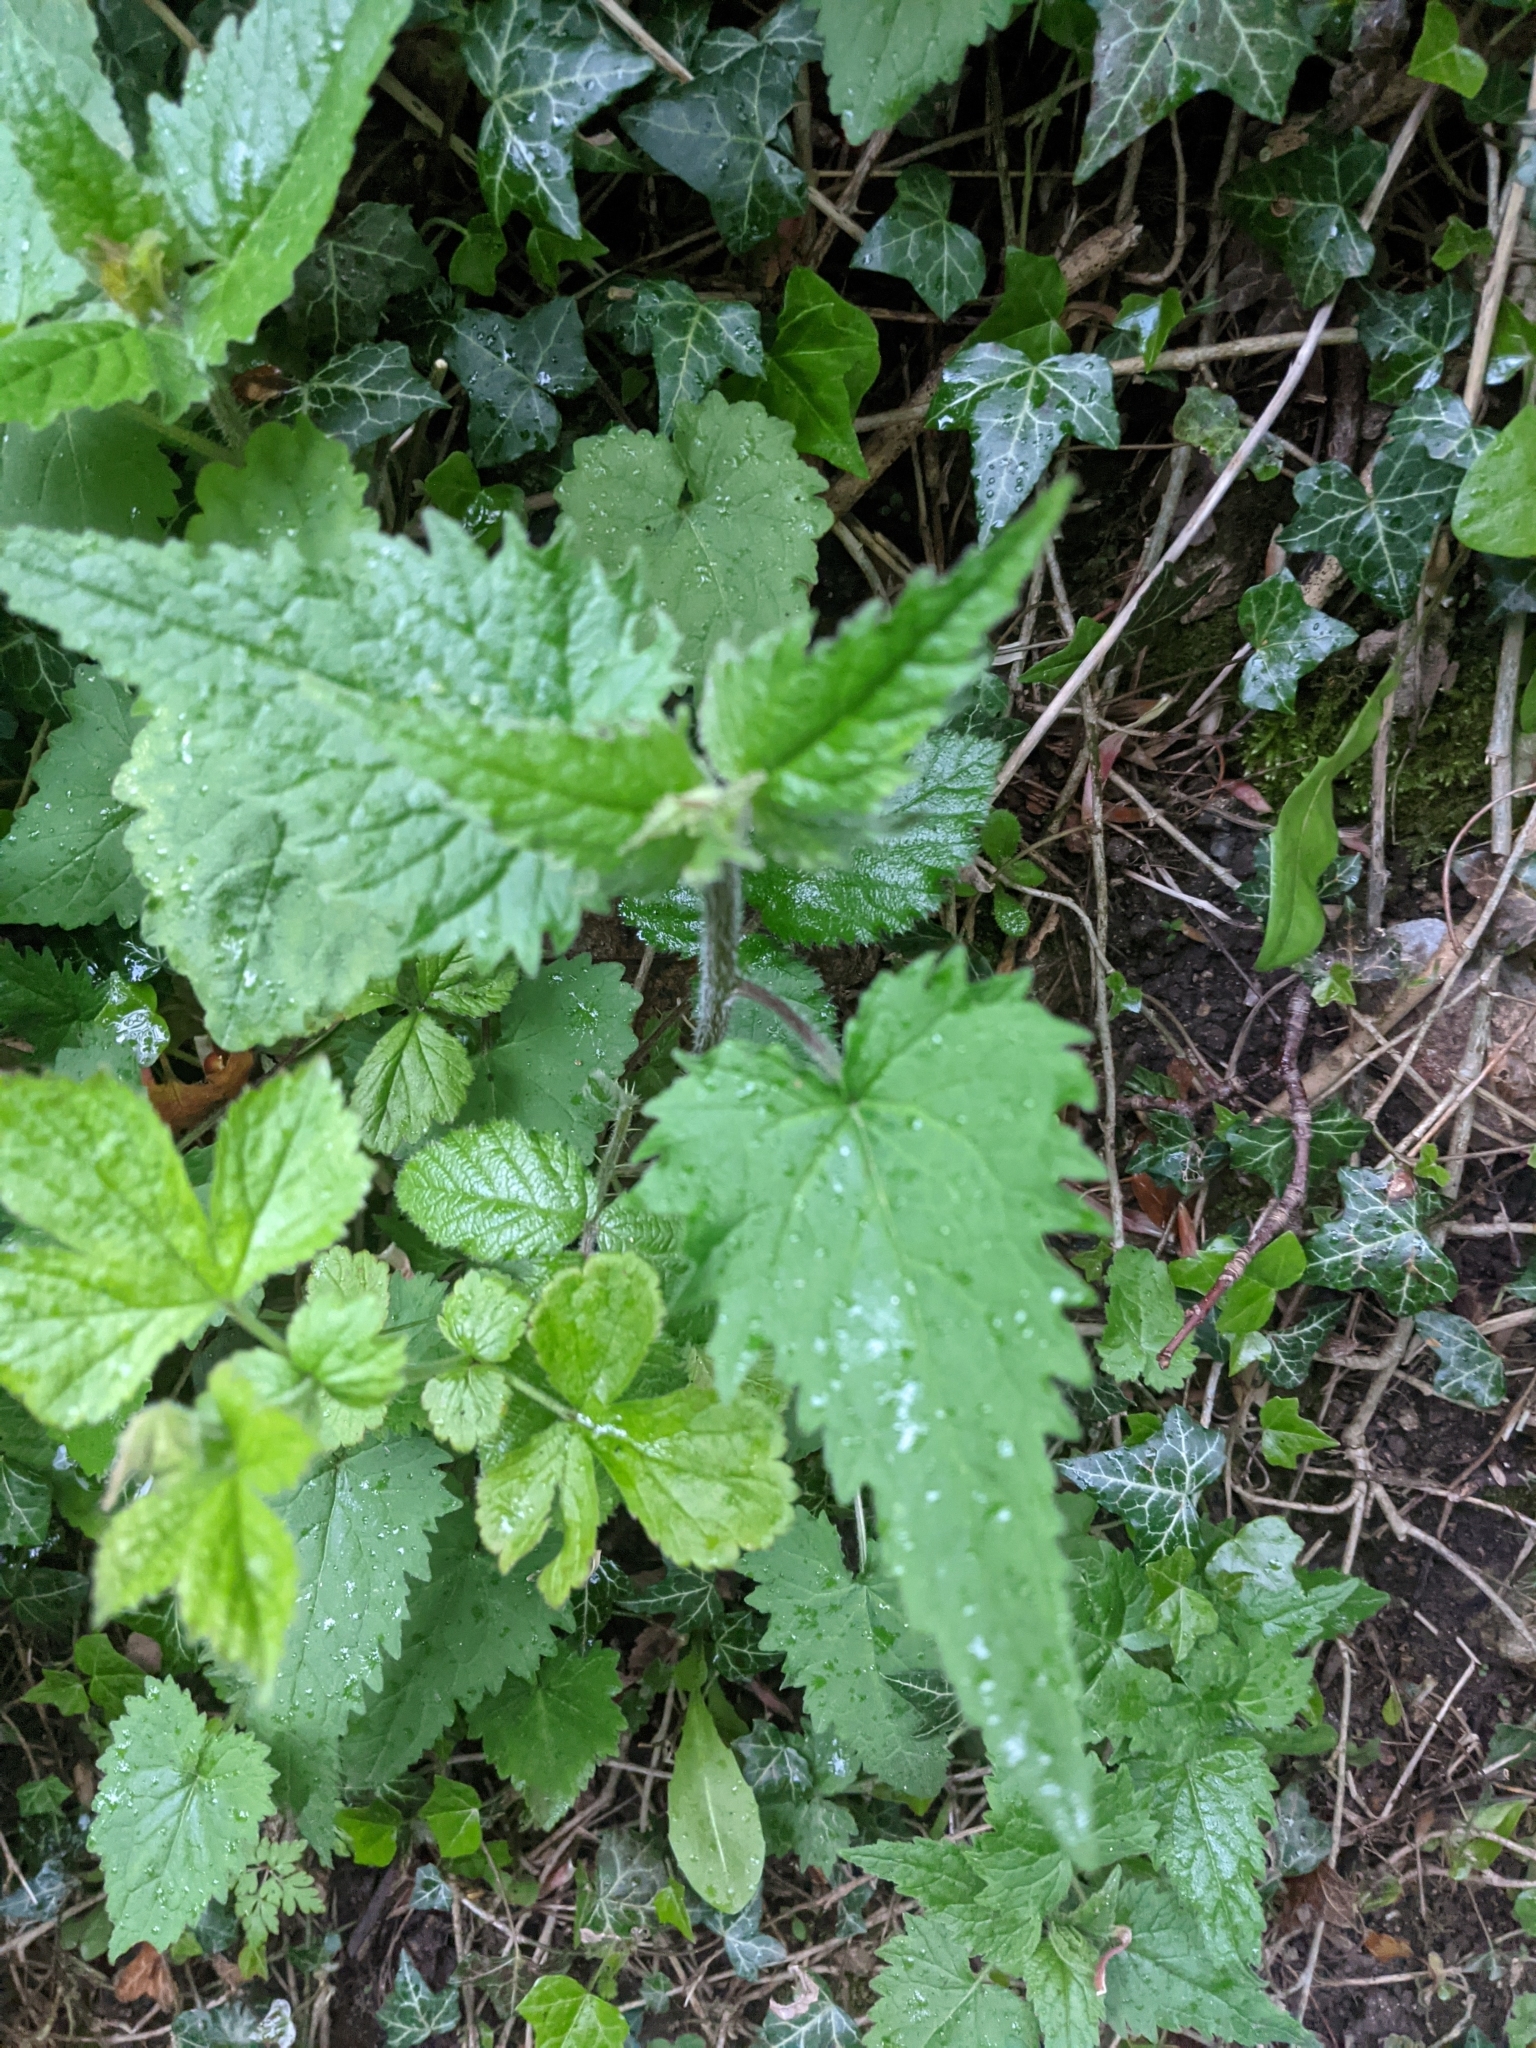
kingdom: Plantae
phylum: Tracheophyta
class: Magnoliopsida
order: Asterales
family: Campanulaceae
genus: Campanula
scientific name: Campanula trachelium
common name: Nettle-leaved bellflower
